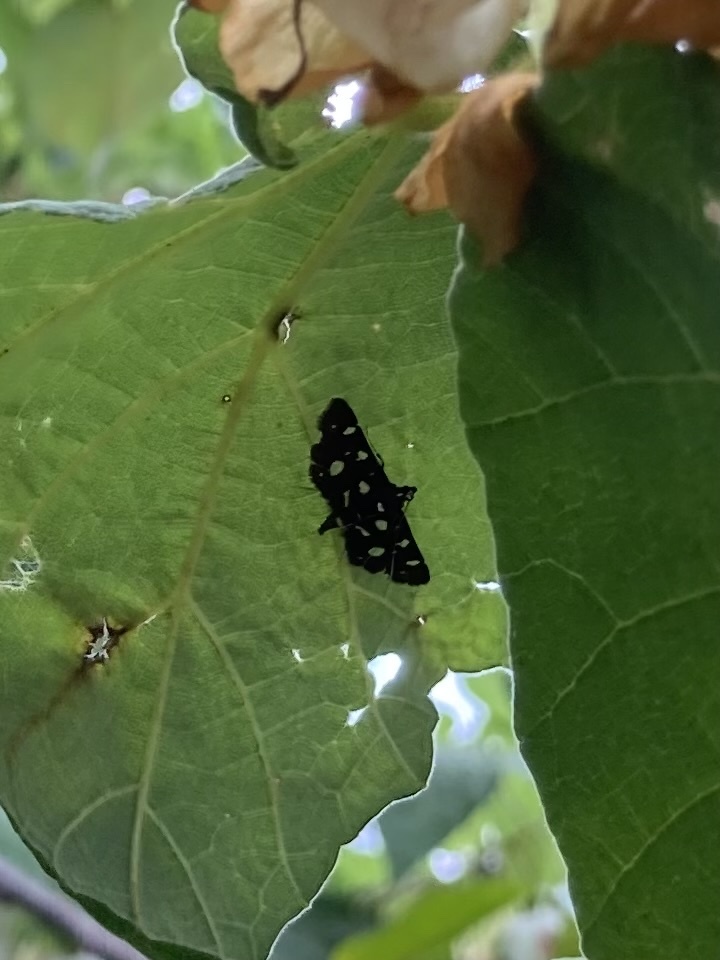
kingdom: Animalia
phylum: Arthropoda
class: Insecta
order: Lepidoptera
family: Crambidae
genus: Bocchoris
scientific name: Bocchoris inspersalis
